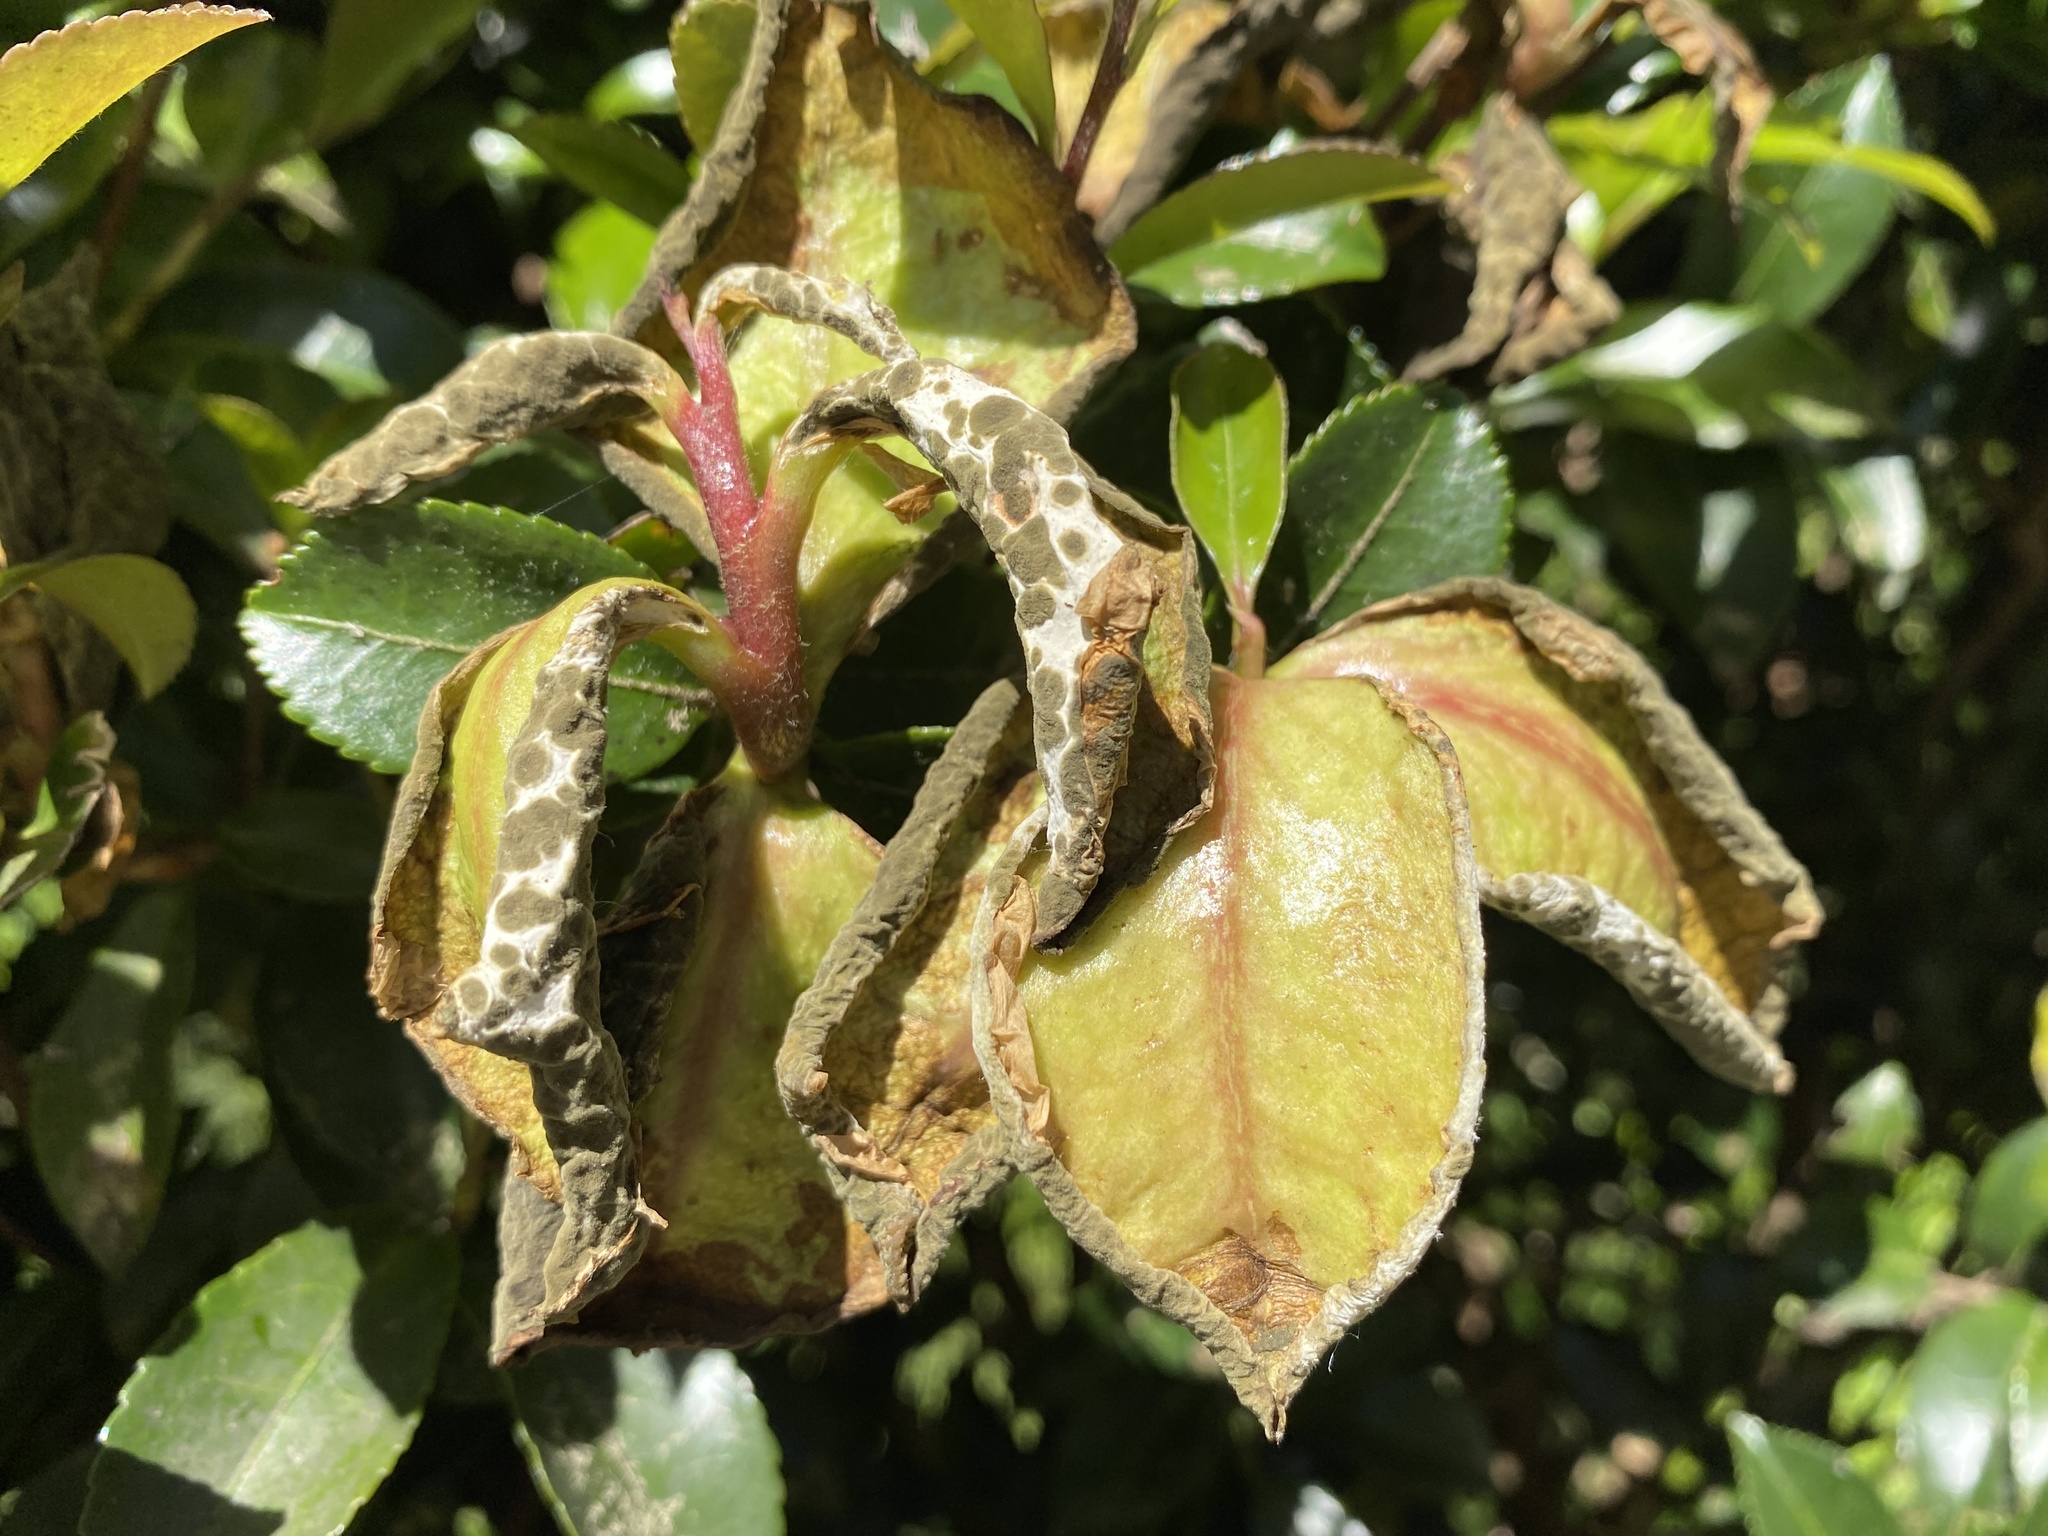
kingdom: Fungi
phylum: Basidiomycota
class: Exobasidiomycetes
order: Exobasidiales
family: Exobasidiaceae
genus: Exobasidium
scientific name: Exobasidium camelliae
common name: Camellia gall
